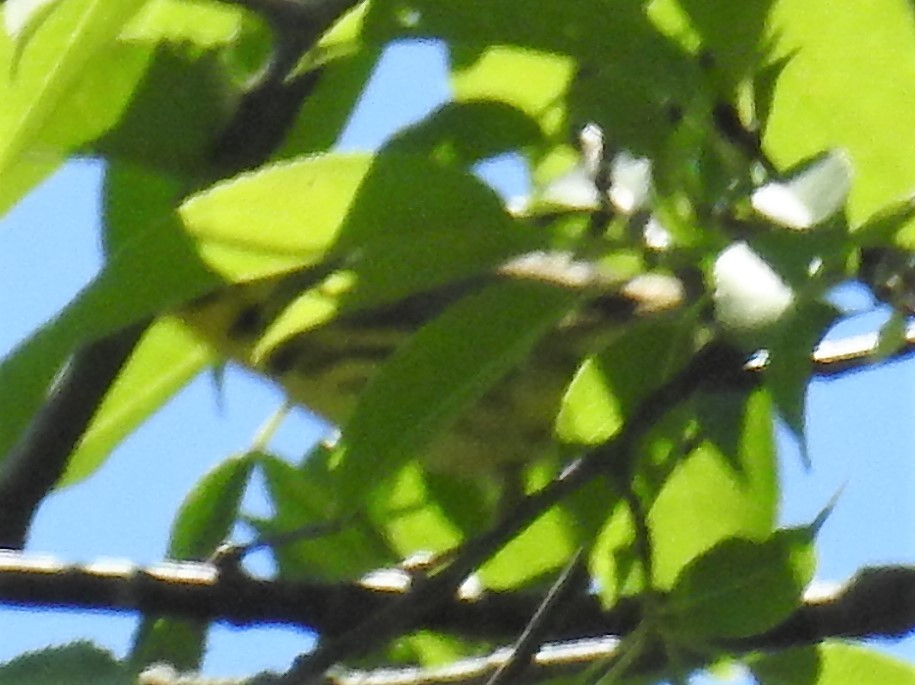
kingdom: Animalia
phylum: Chordata
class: Aves
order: Passeriformes
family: Parulidae
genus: Setophaga
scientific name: Setophaga discolor
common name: Prairie warbler
